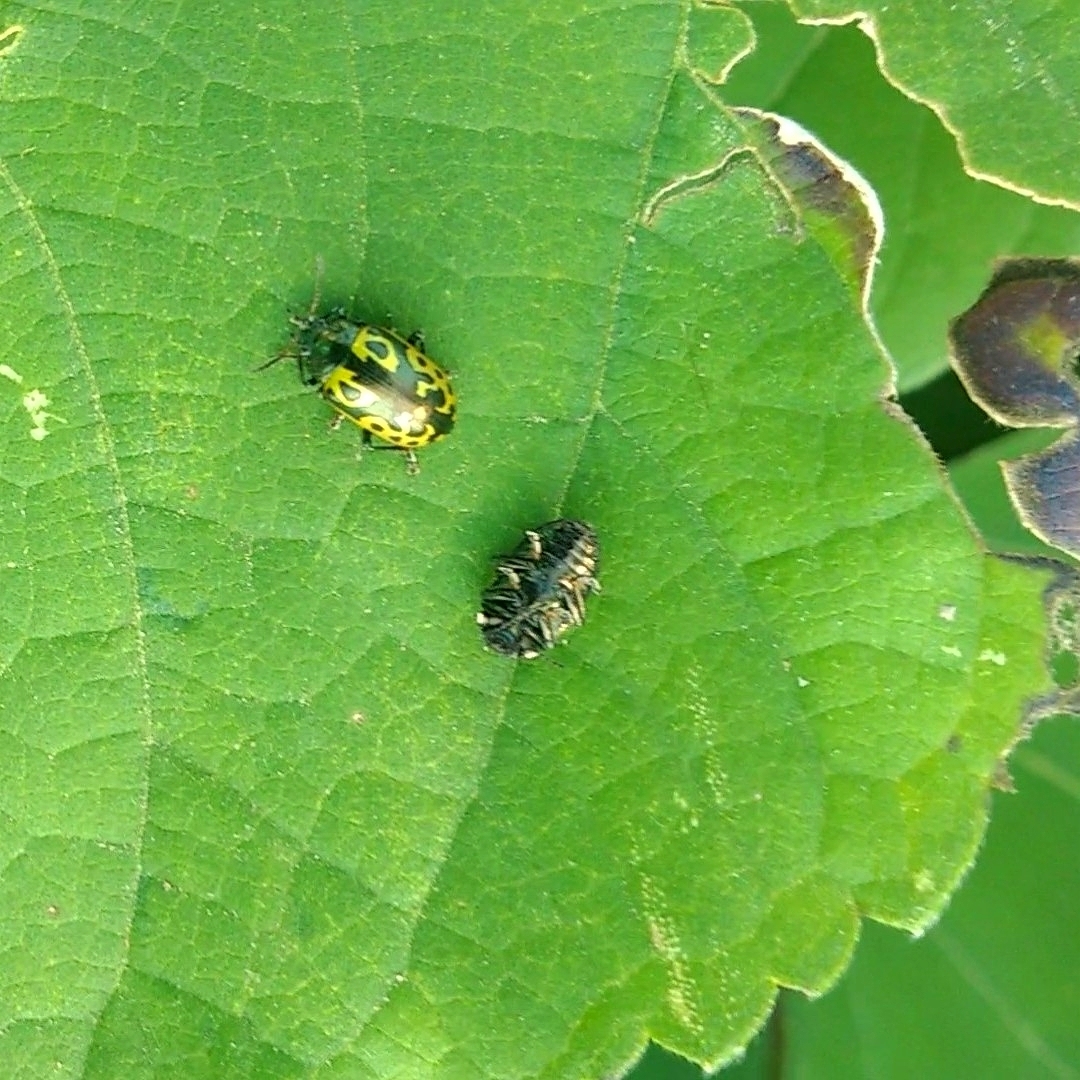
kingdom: Animalia
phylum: Arthropoda
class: Insecta
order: Coleoptera
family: Chrysomelidae
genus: Calligrapha
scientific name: Calligrapha
